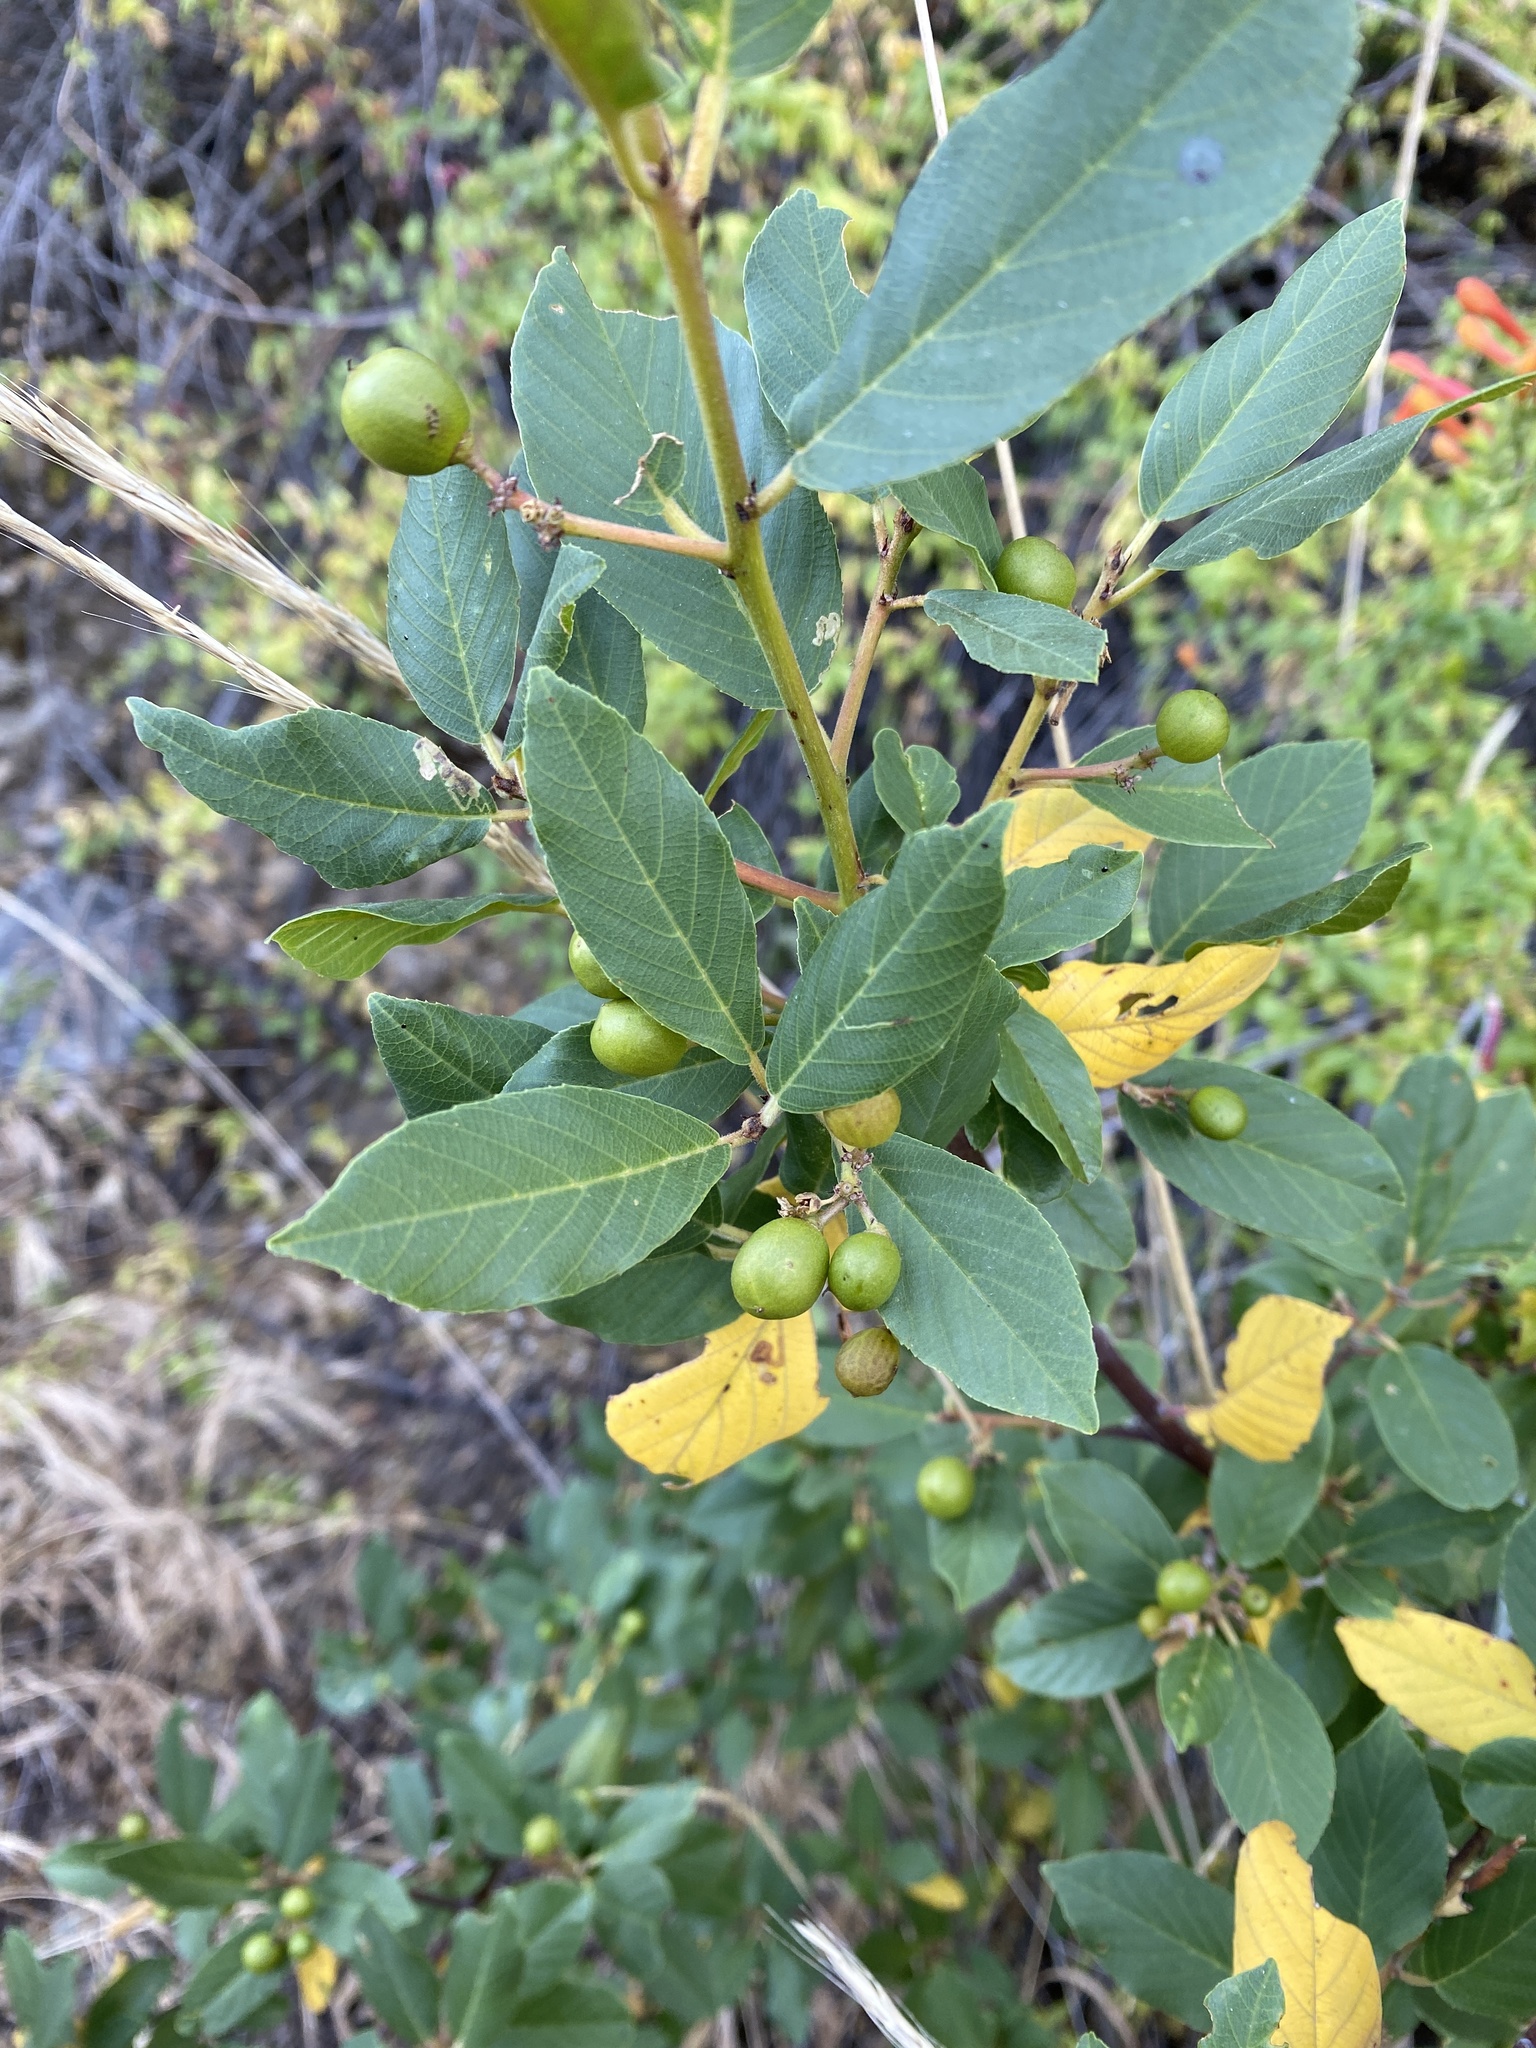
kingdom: Plantae
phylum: Tracheophyta
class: Magnoliopsida
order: Rosales
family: Rhamnaceae
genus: Frangula
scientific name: Frangula californica
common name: California buckthorn
